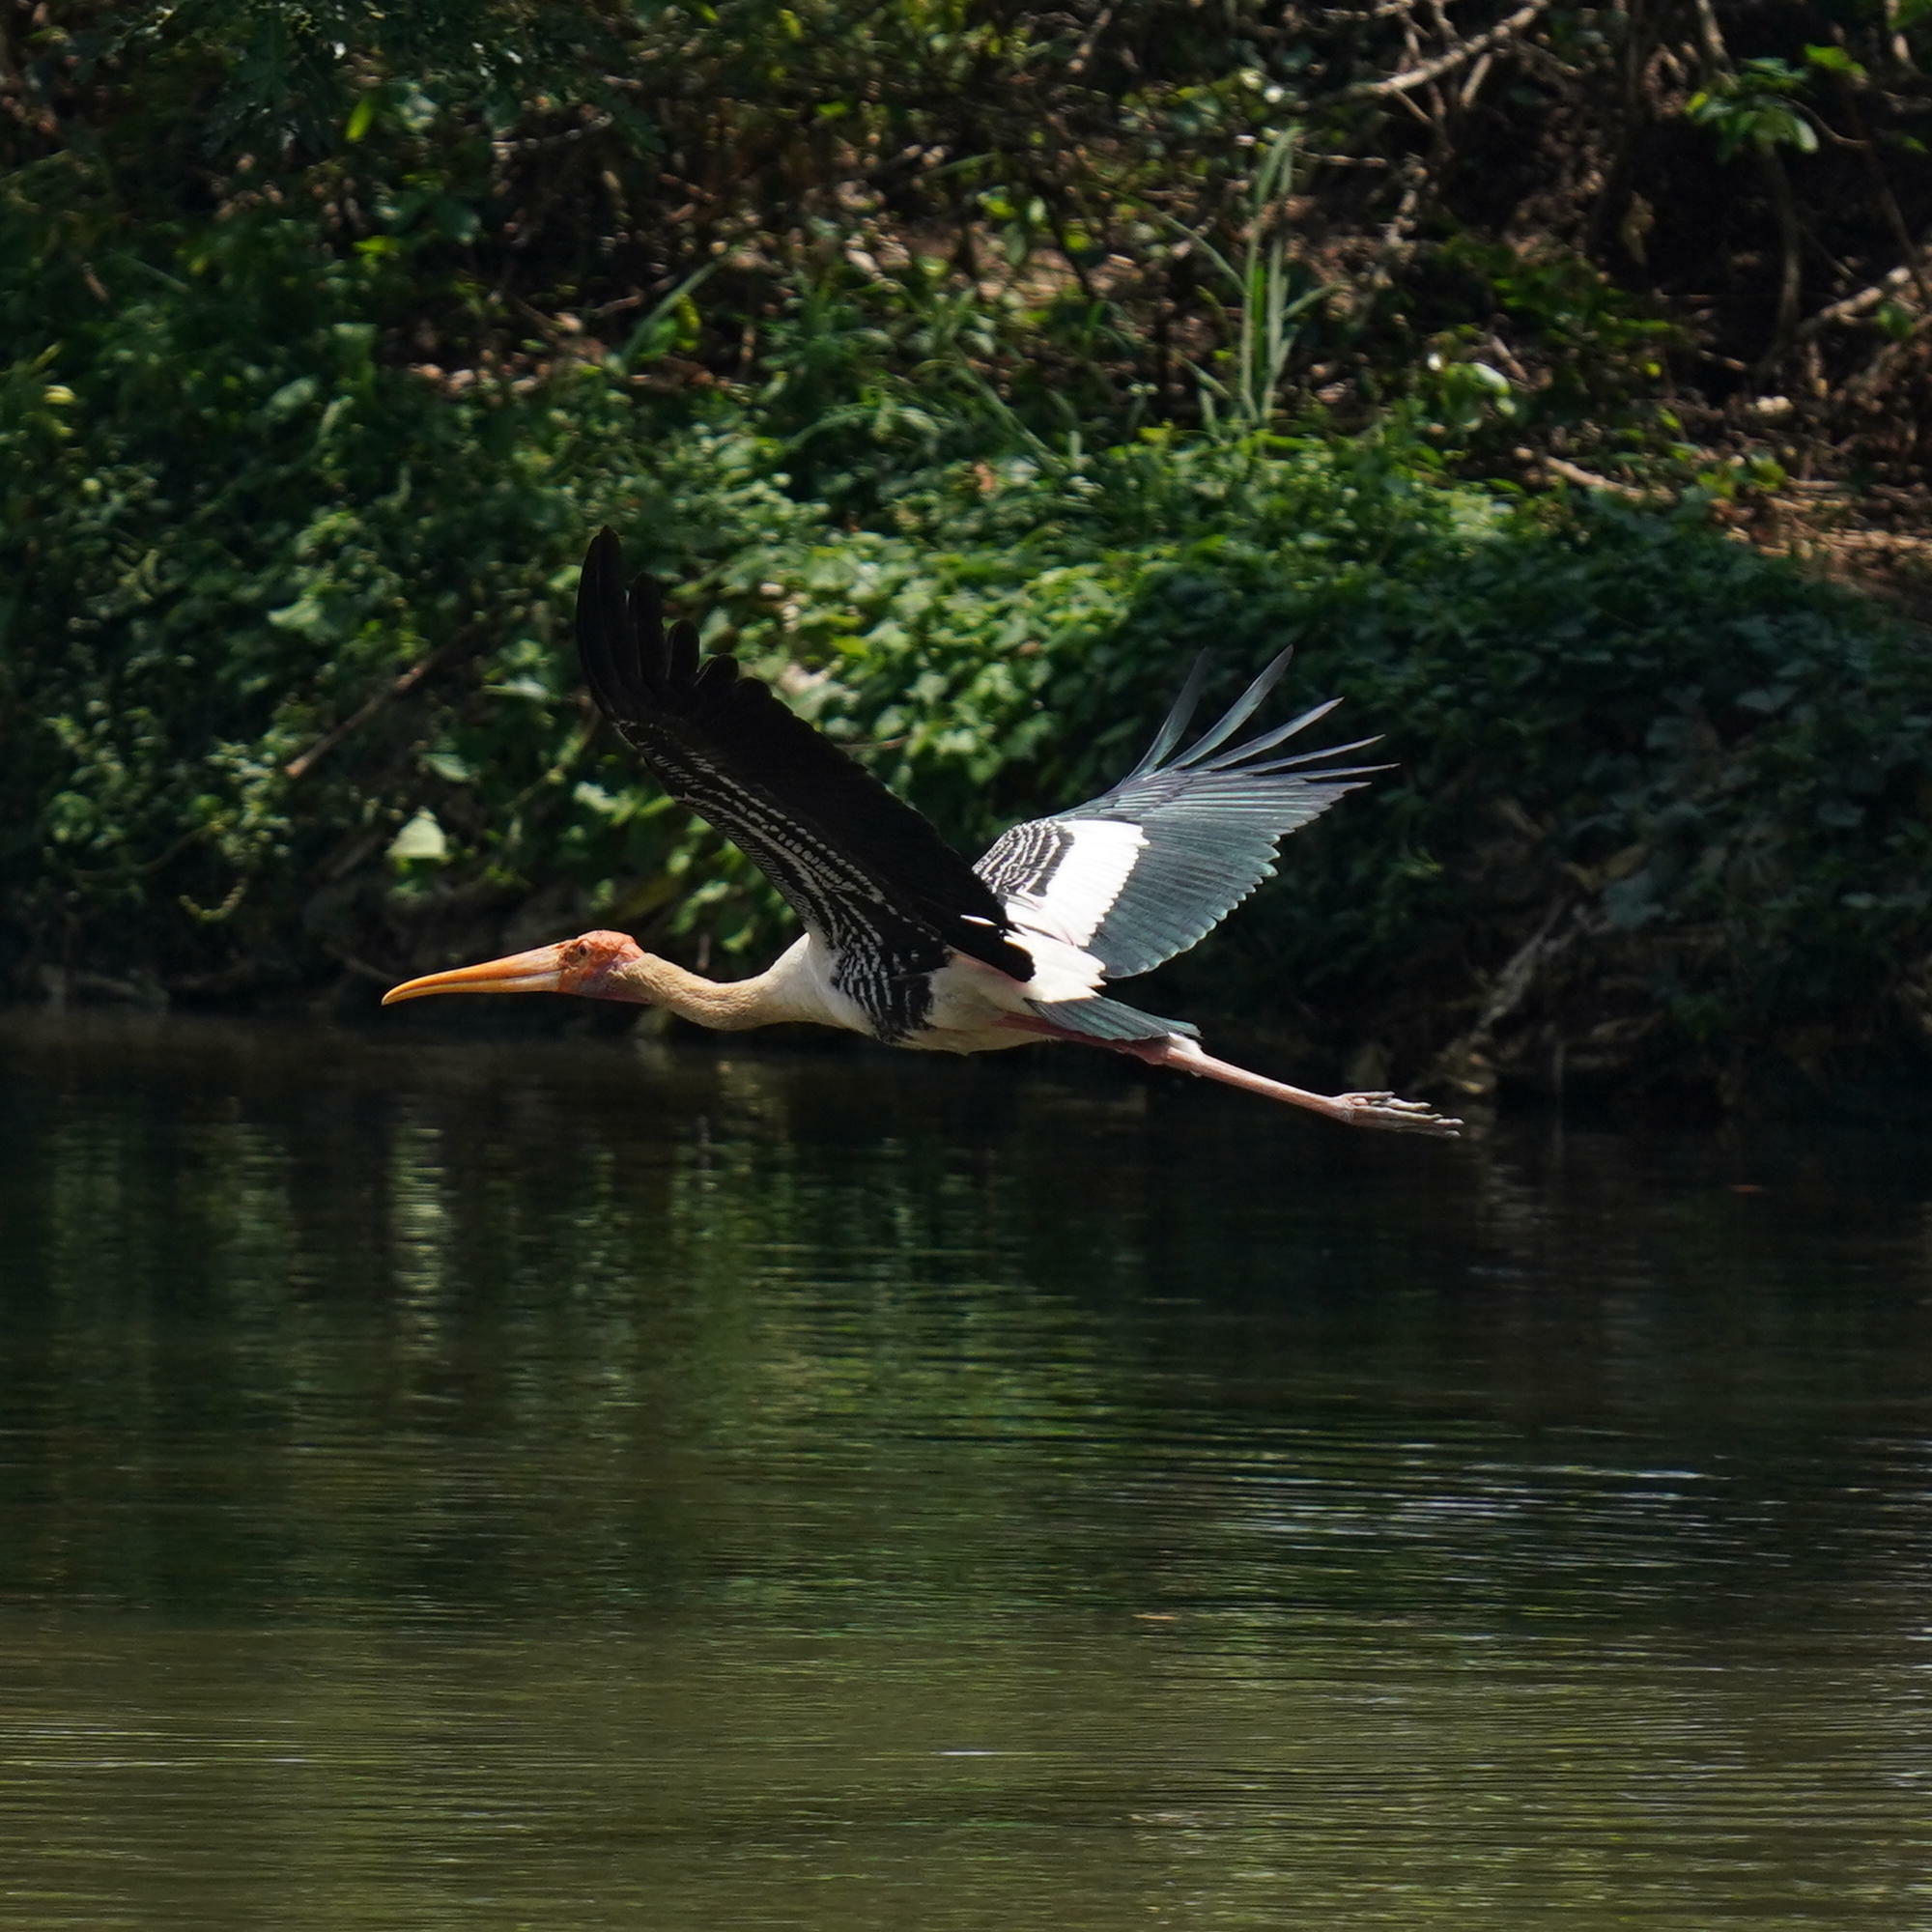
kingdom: Animalia
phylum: Chordata
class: Aves
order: Ciconiiformes
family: Ciconiidae
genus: Mycteria
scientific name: Mycteria leucocephala
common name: Painted stork
